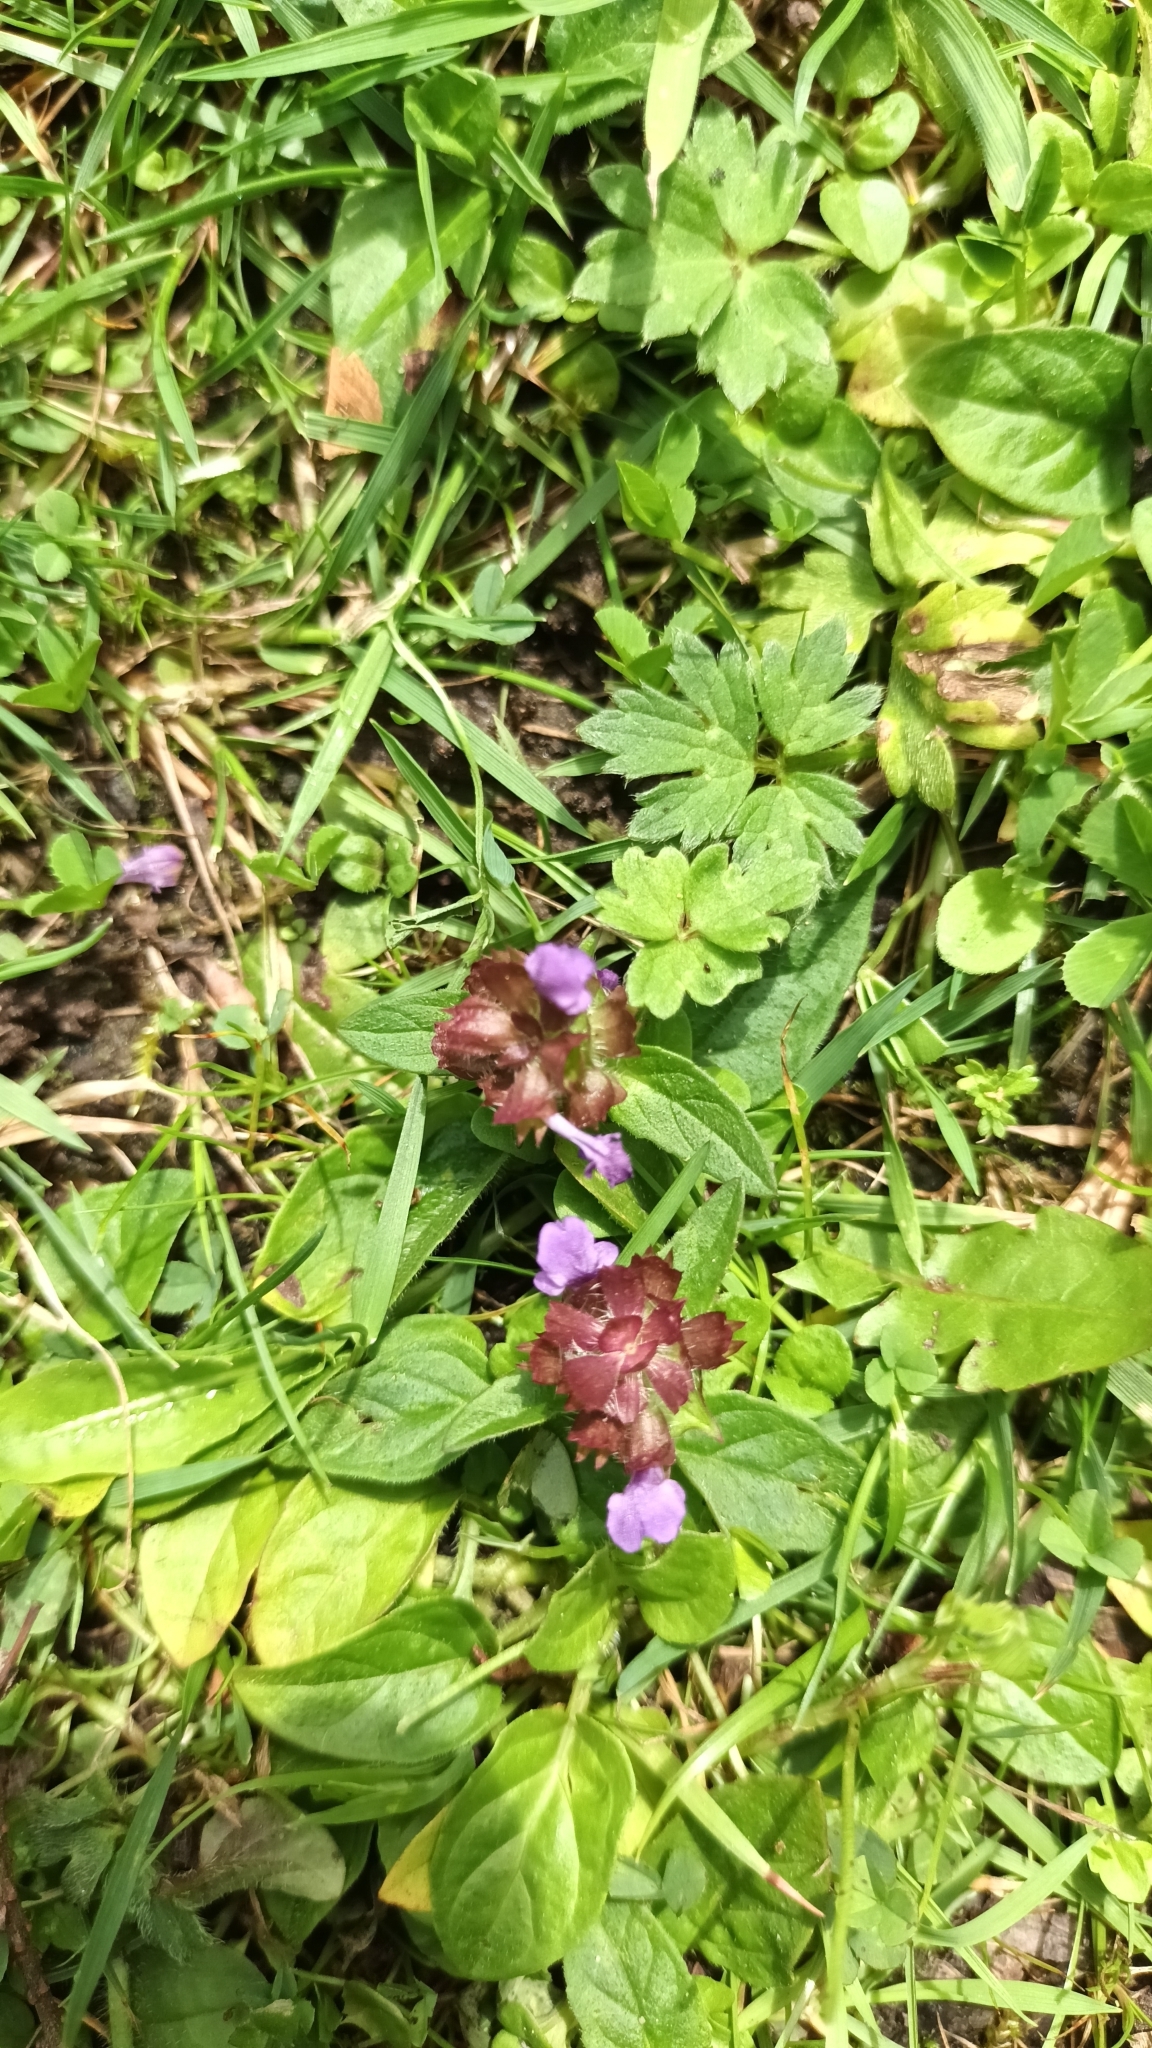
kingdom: Plantae
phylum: Tracheophyta
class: Magnoliopsida
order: Lamiales
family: Lamiaceae
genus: Prunella
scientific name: Prunella vulgaris
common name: Heal-all
